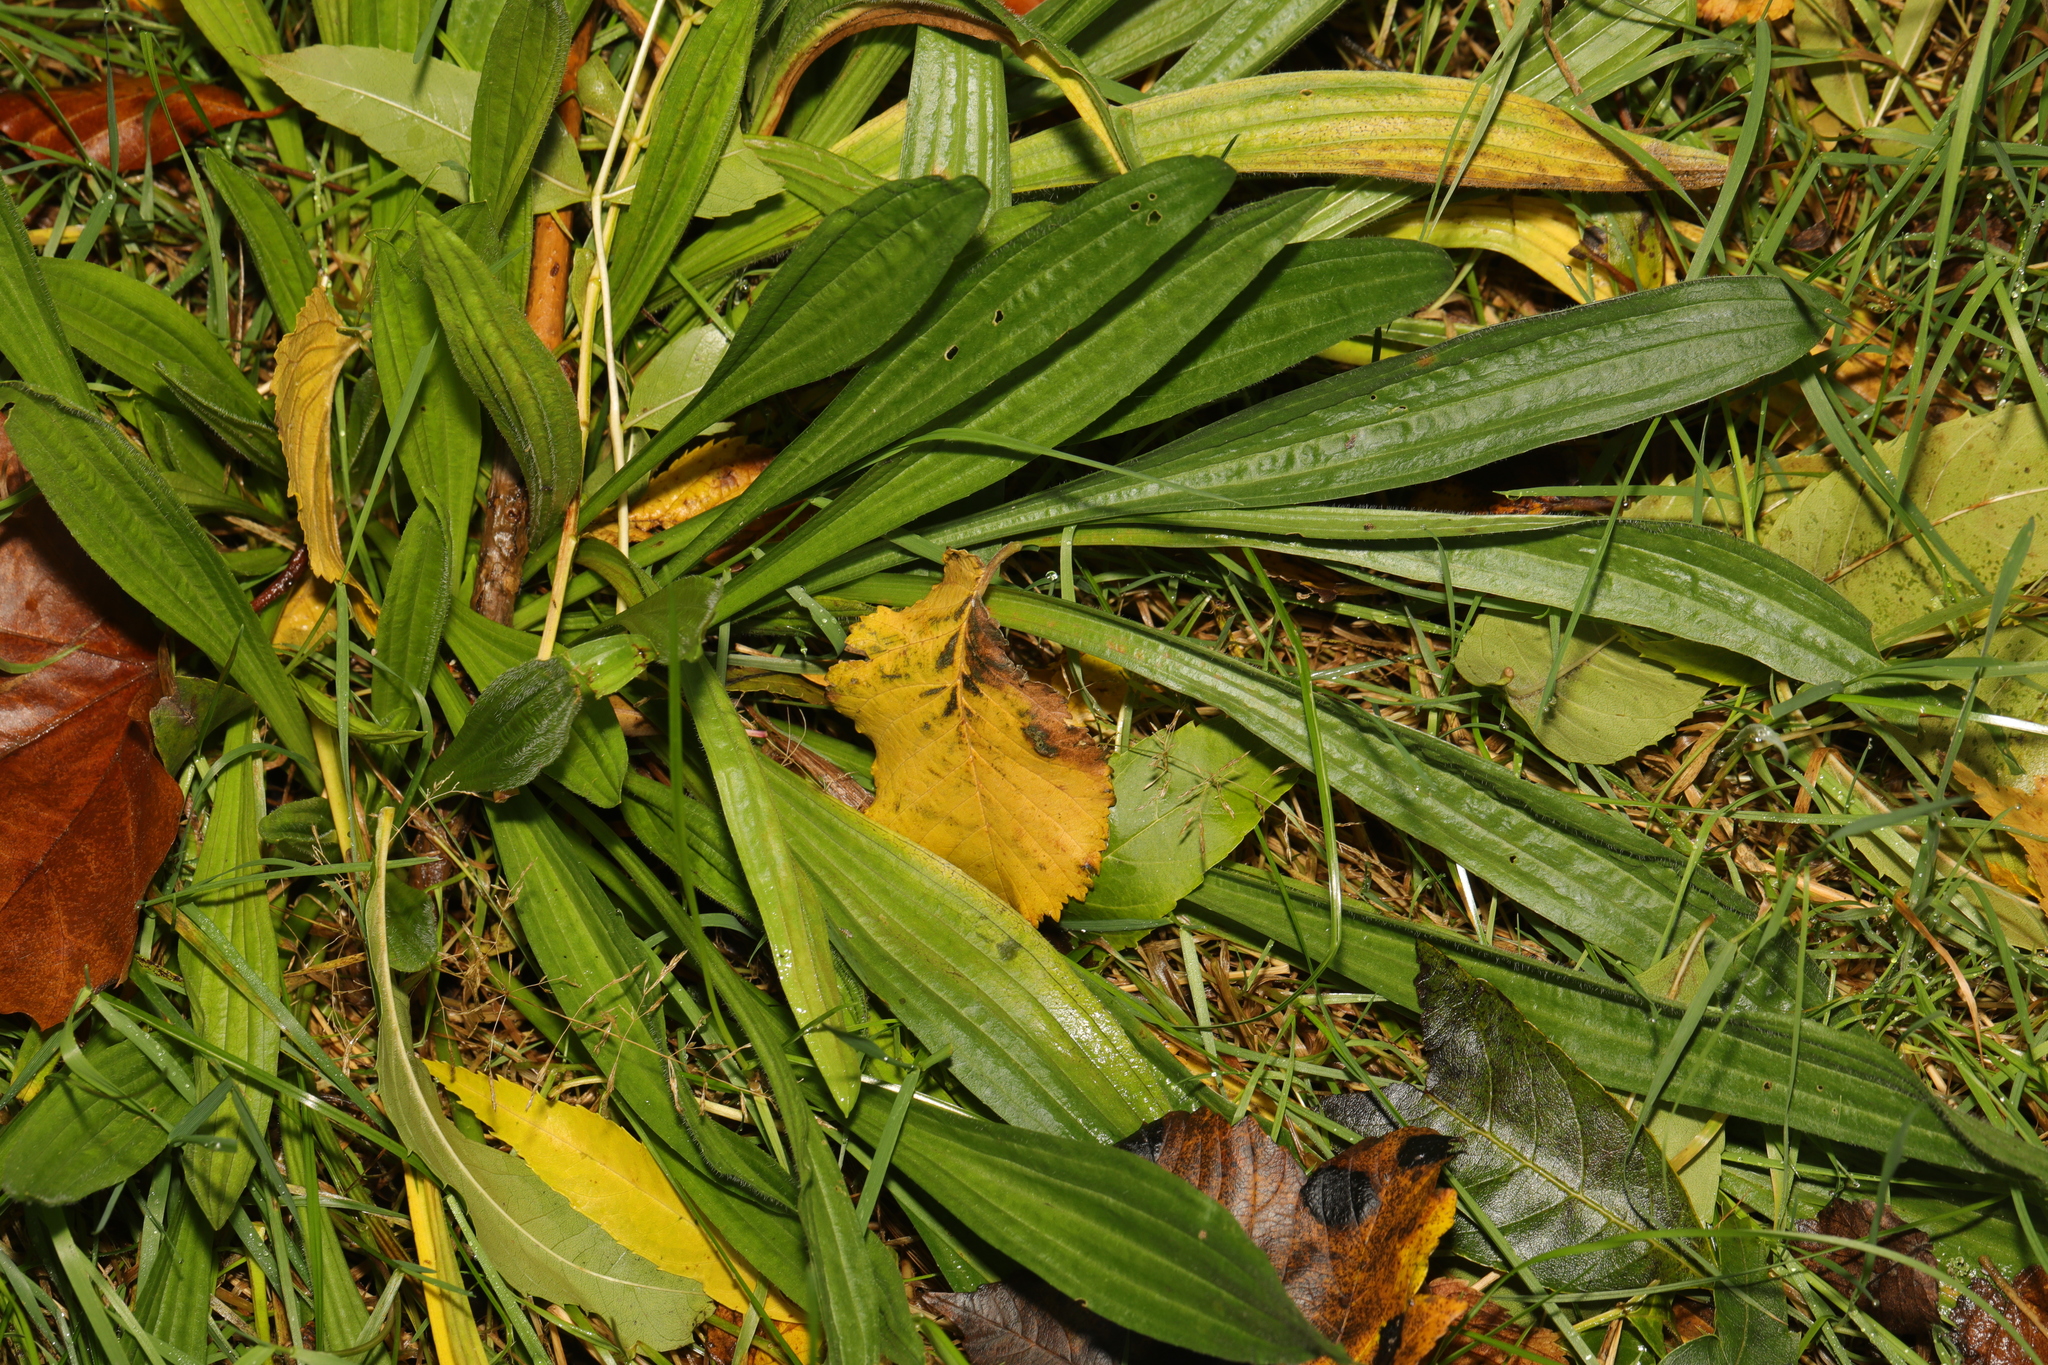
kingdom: Plantae
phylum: Tracheophyta
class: Magnoliopsida
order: Lamiales
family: Plantaginaceae
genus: Plantago
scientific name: Plantago lanceolata
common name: Ribwort plantain
